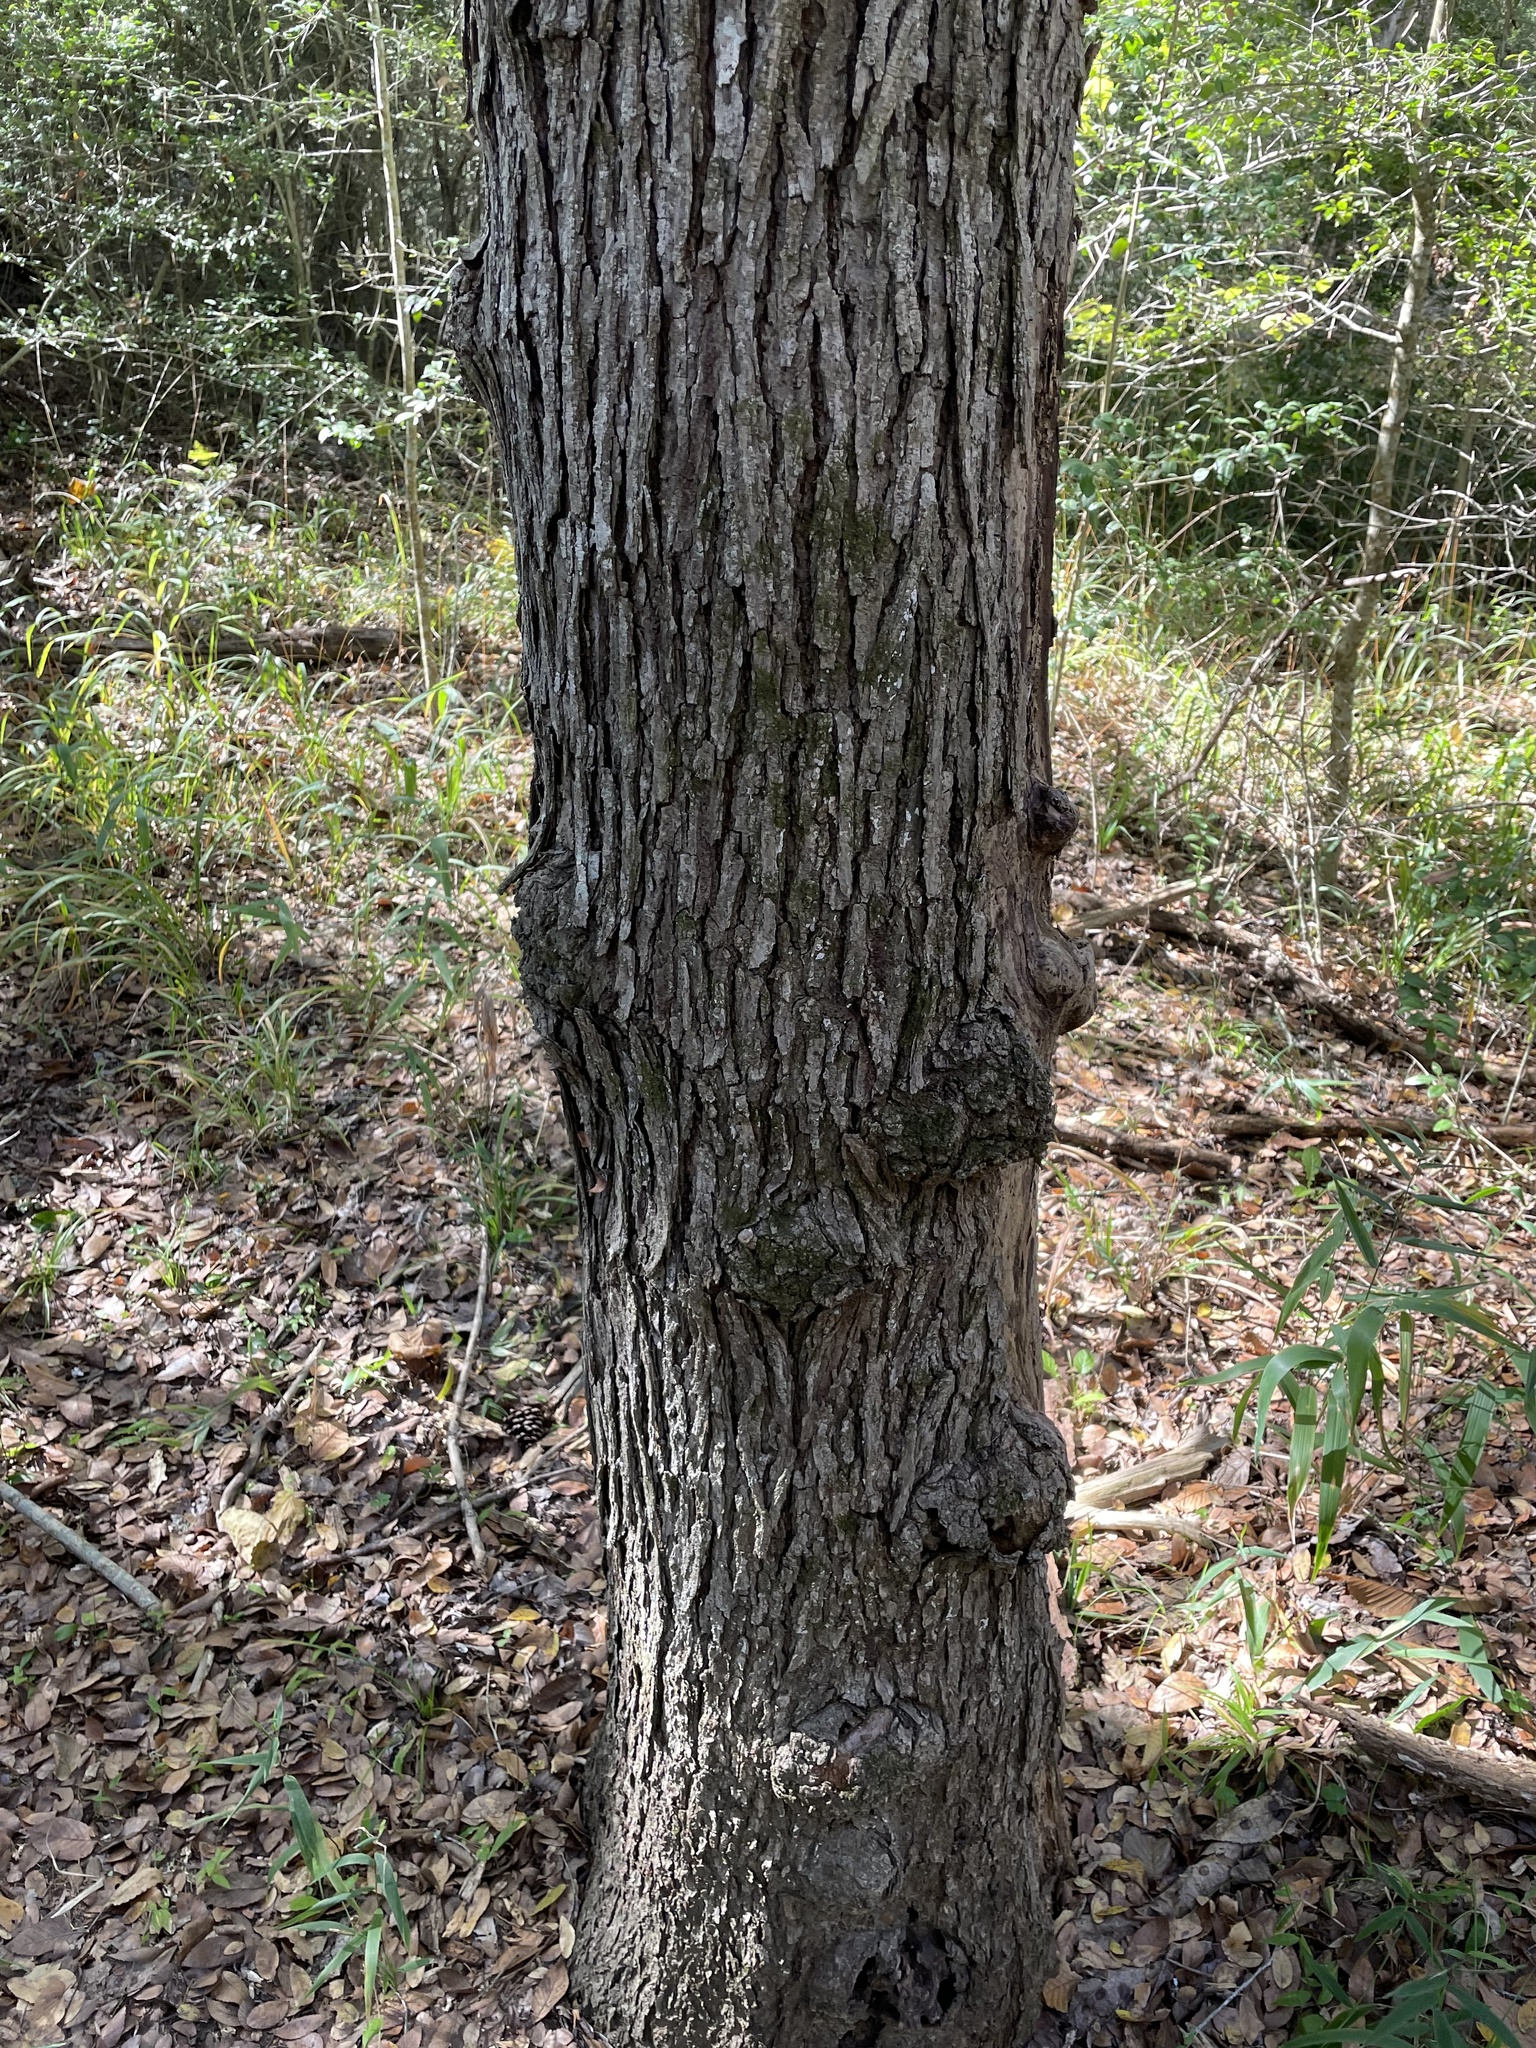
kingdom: Plantae
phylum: Tracheophyta
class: Magnoliopsida
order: Rosales
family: Moraceae
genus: Morus
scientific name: Morus rubra
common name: Red mulberry
